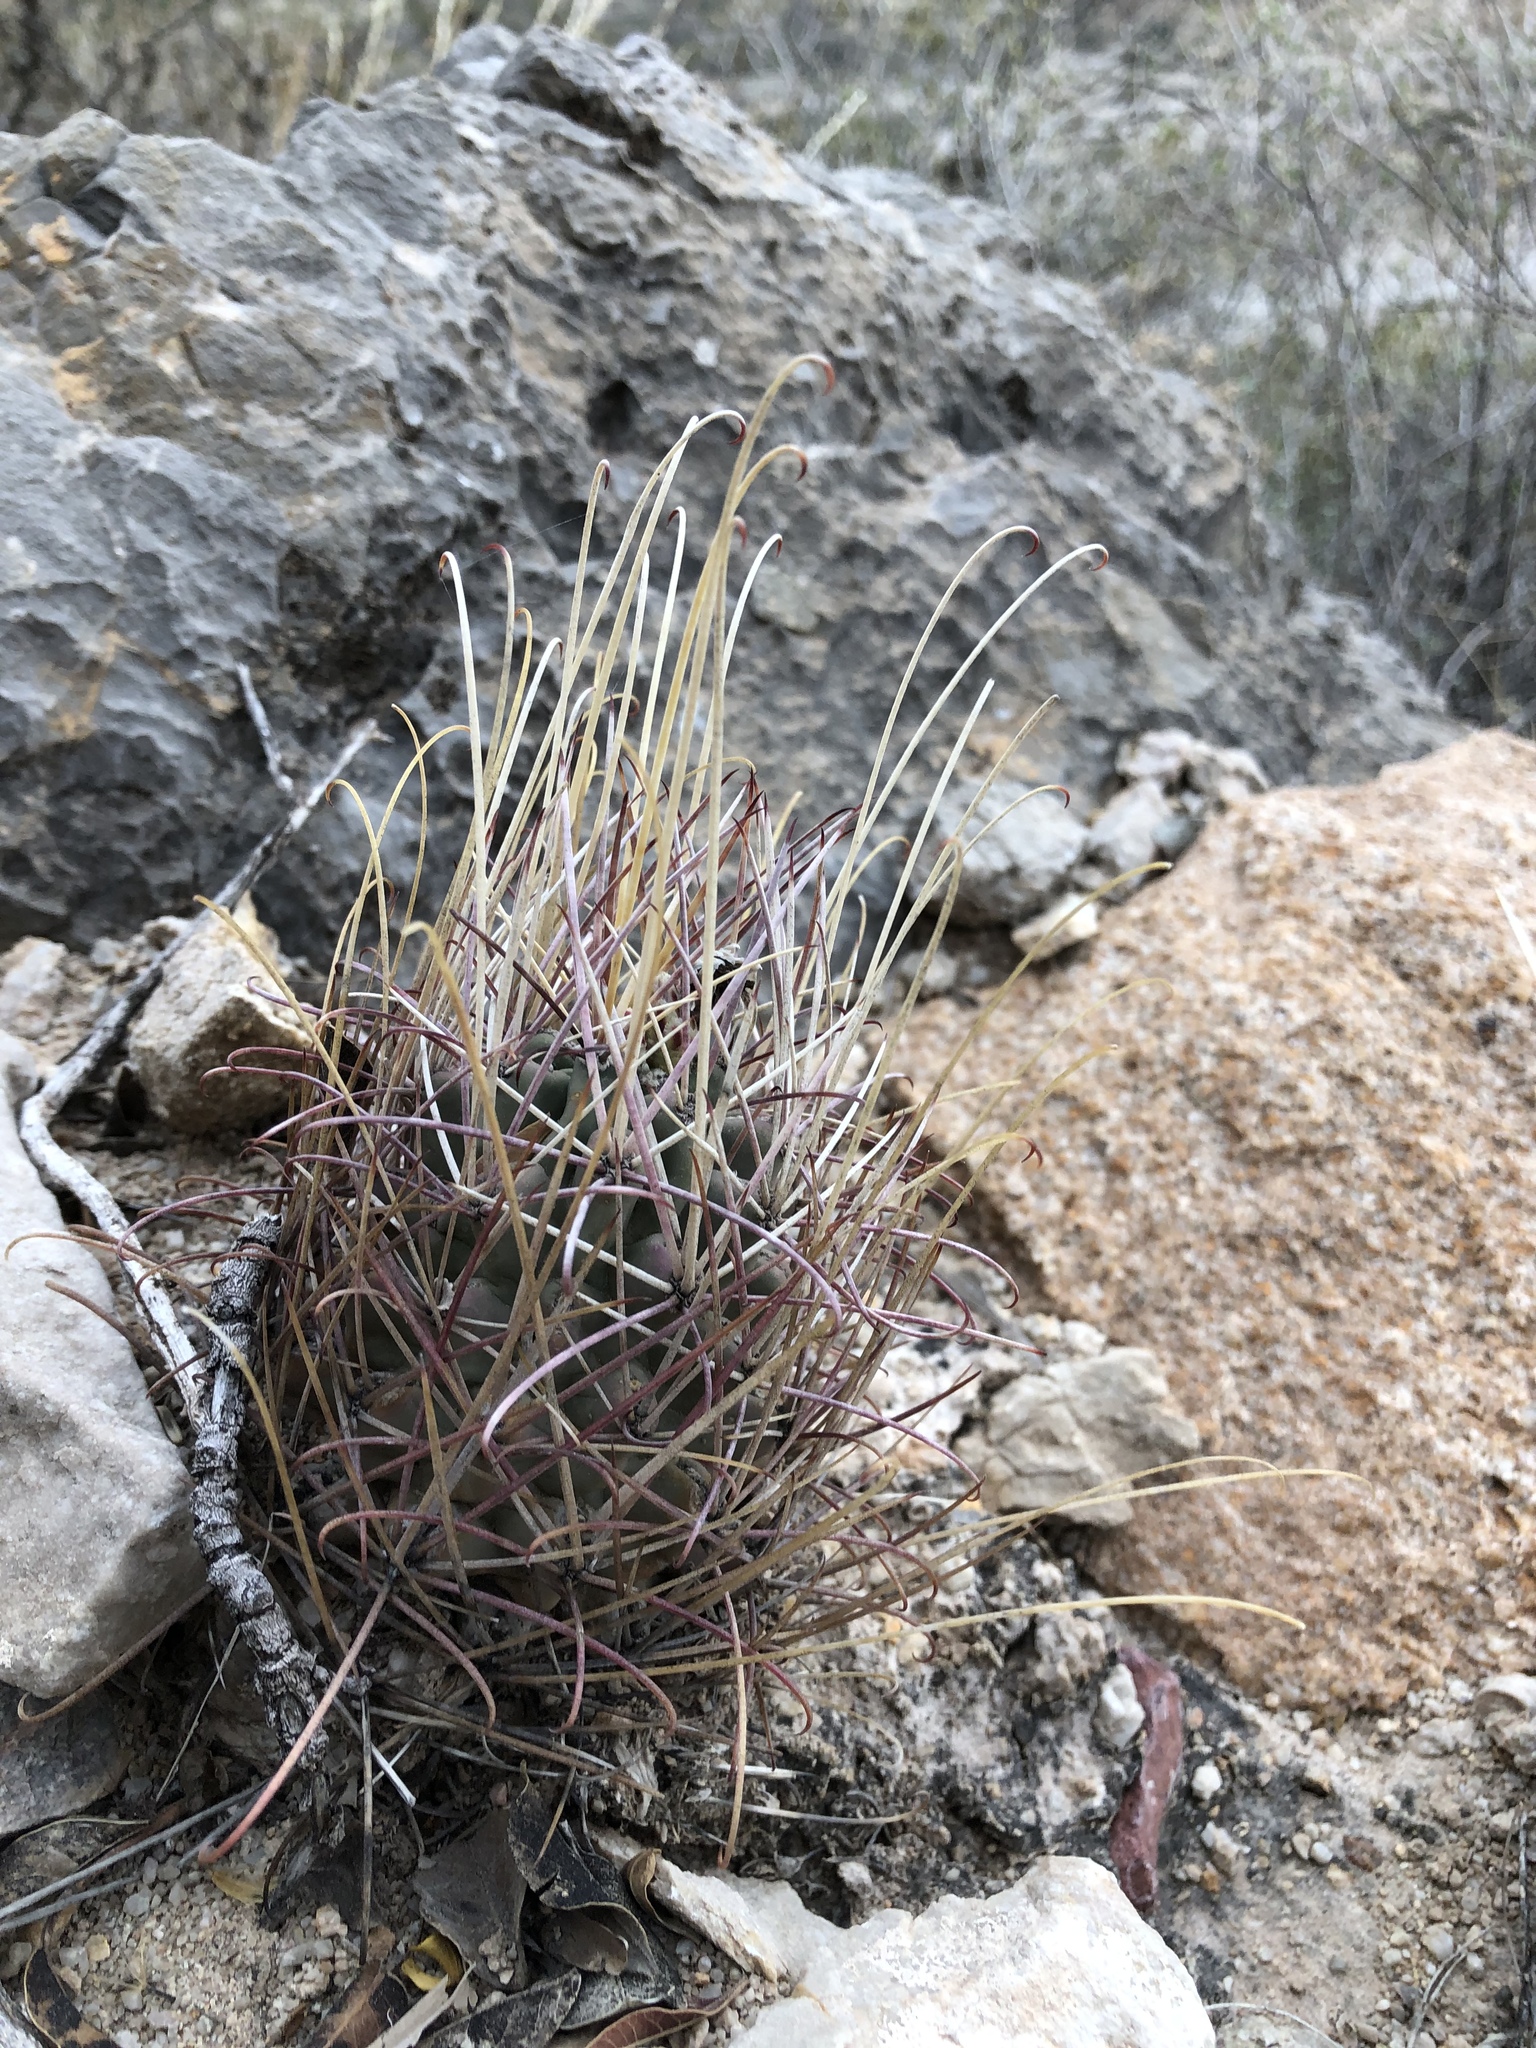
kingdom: Plantae
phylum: Tracheophyta
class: Magnoliopsida
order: Caryophyllales
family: Cactaceae
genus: Ferocactus
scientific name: Ferocactus uncinatus
